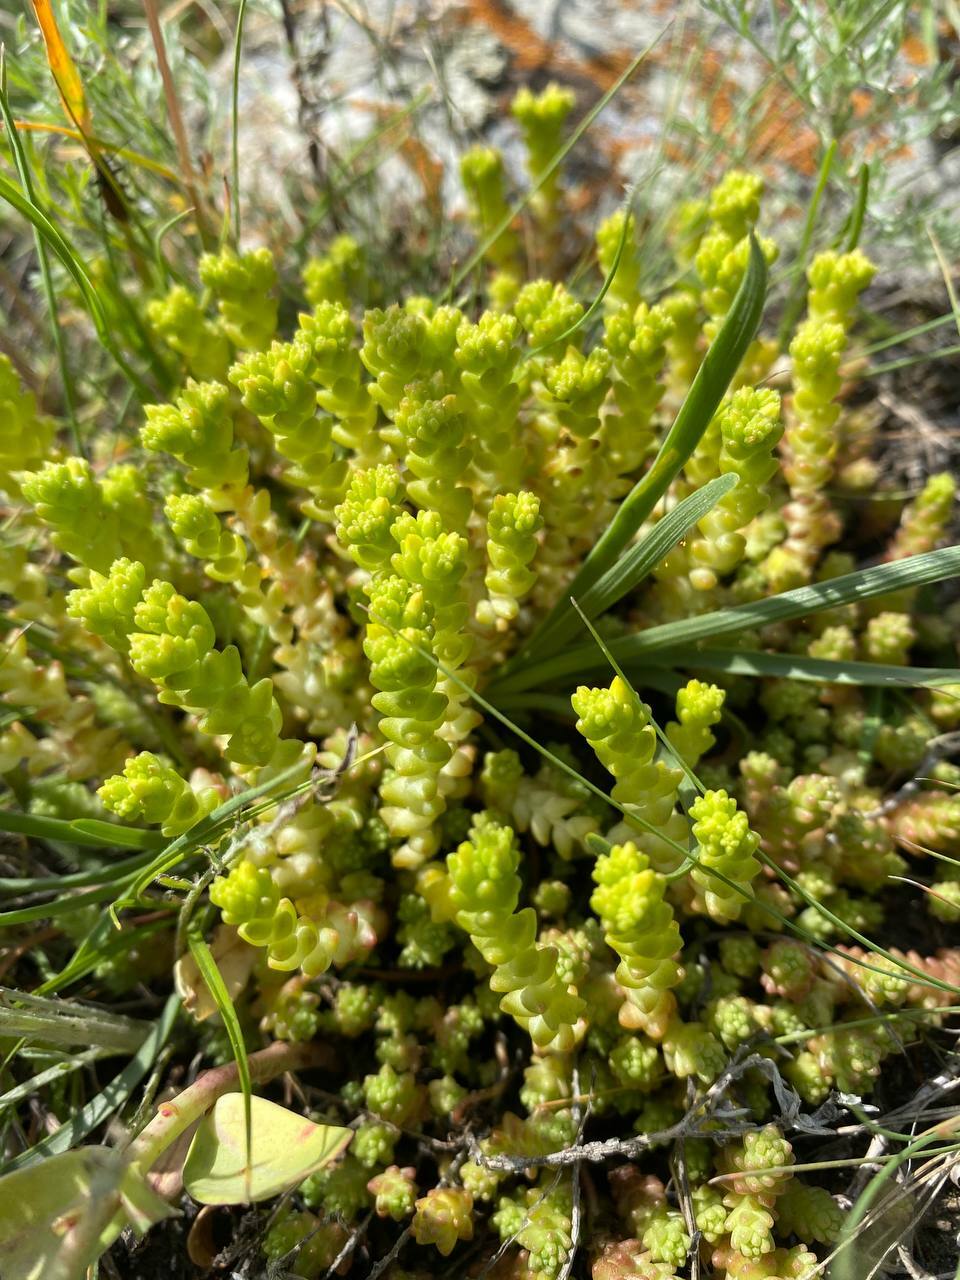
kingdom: Plantae
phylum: Tracheophyta
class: Magnoliopsida
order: Saxifragales
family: Crassulaceae
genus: Sedum
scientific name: Sedum acre
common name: Biting stonecrop
